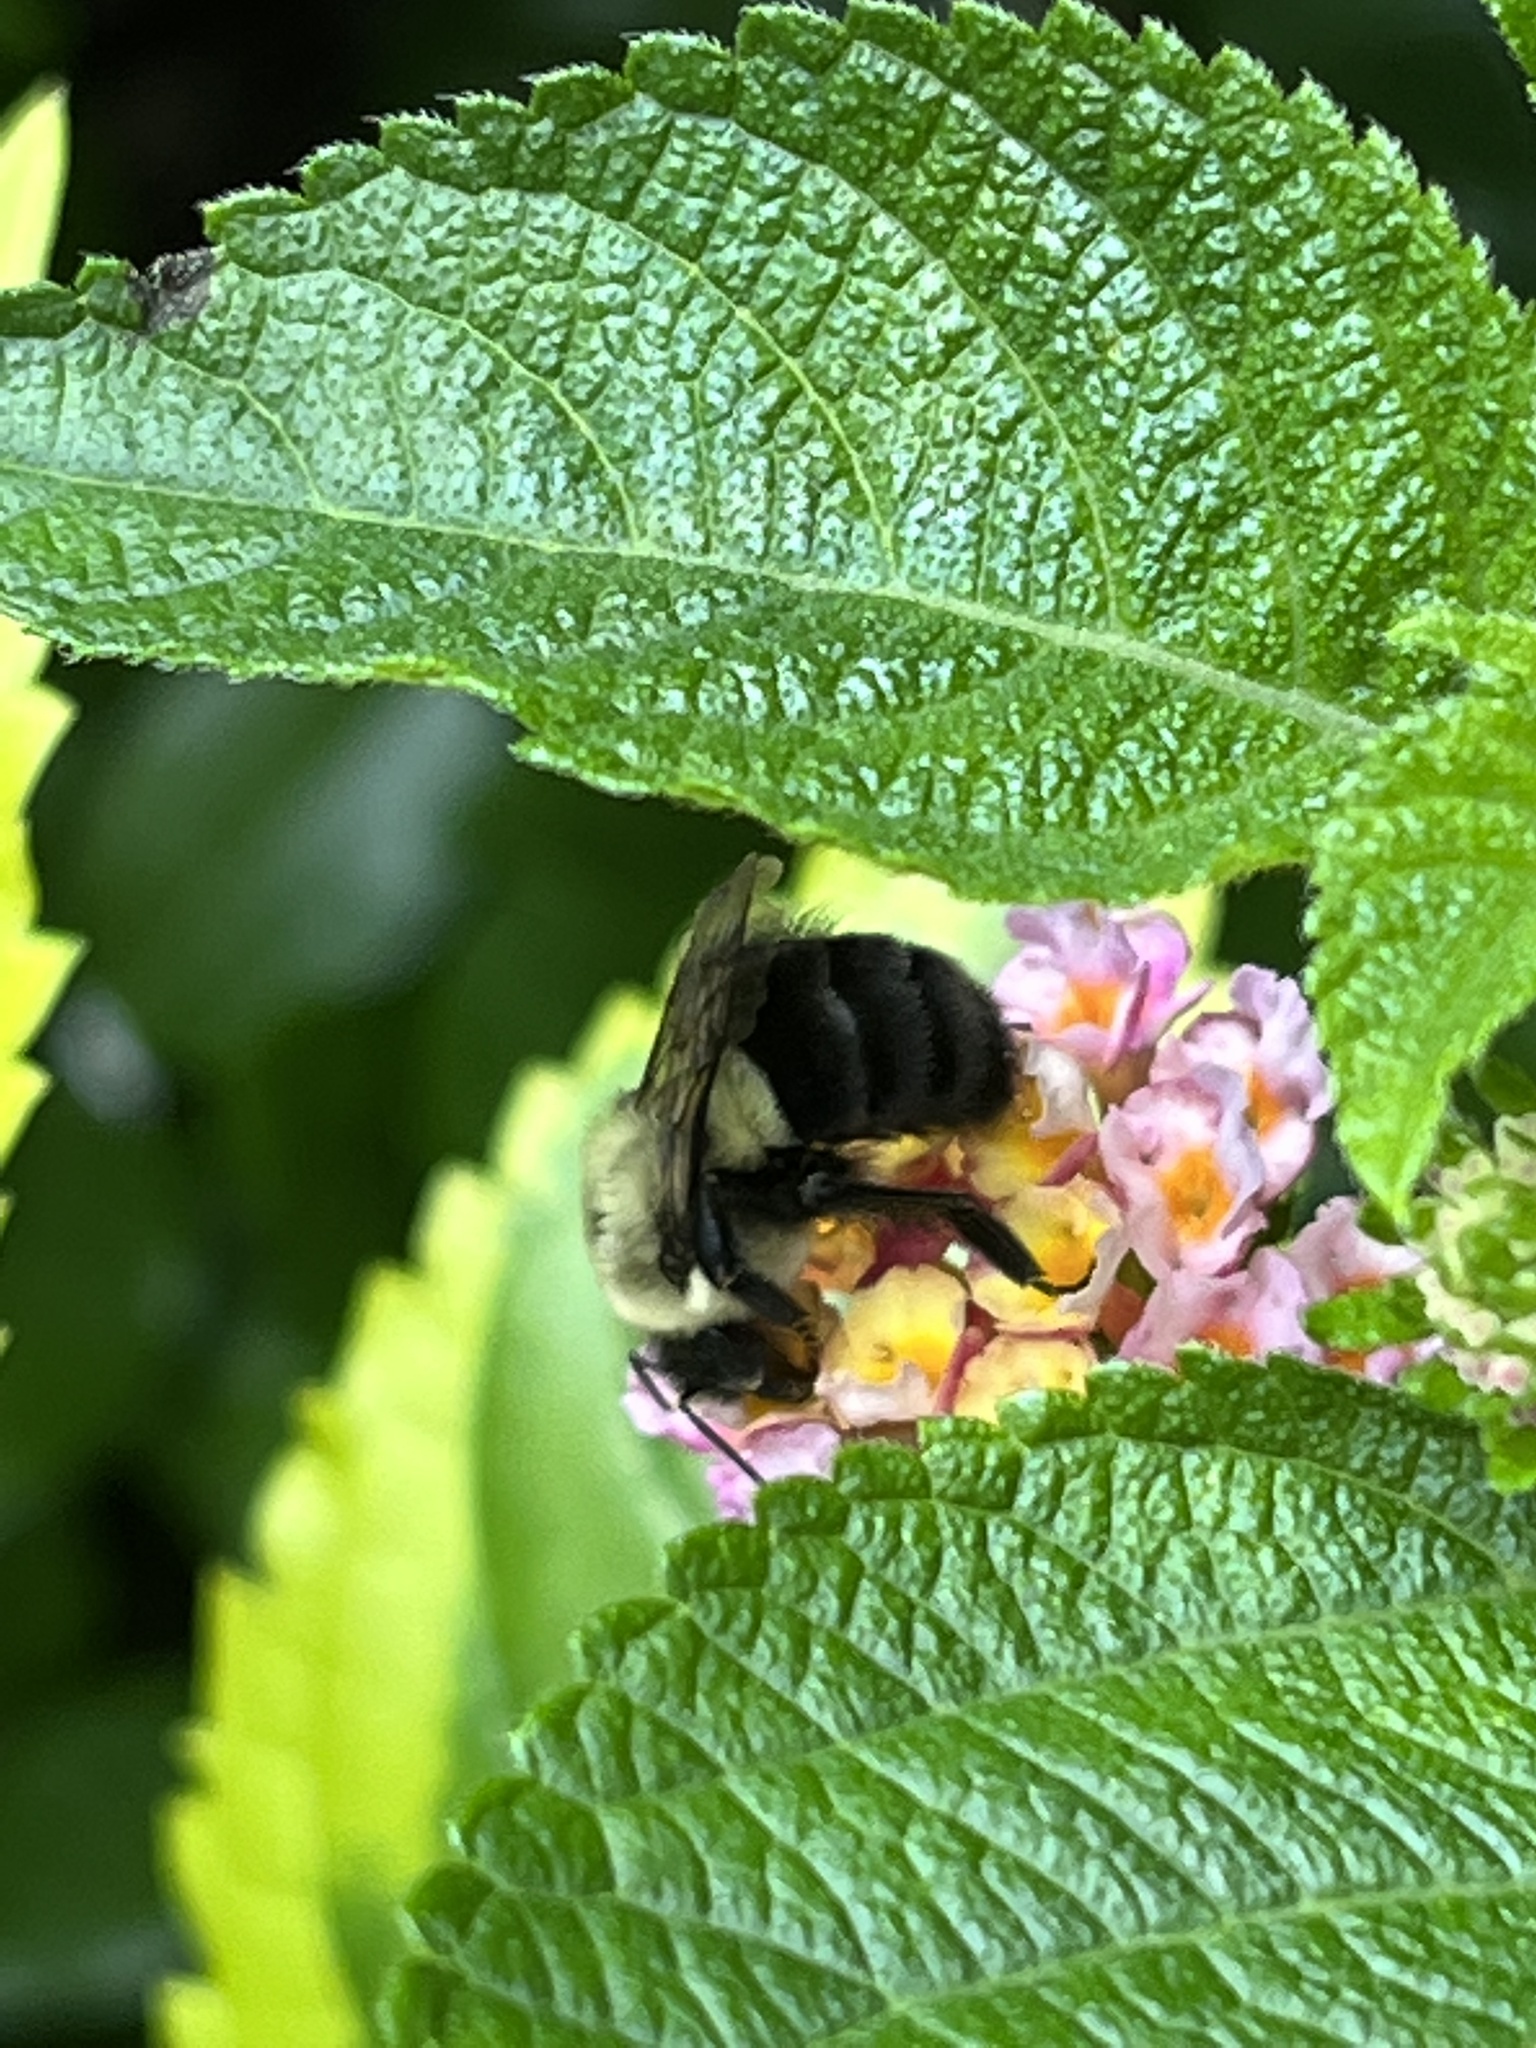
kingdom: Animalia
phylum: Arthropoda
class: Insecta
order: Hymenoptera
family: Apidae
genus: Bombus
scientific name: Bombus impatiens
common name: Common eastern bumble bee
